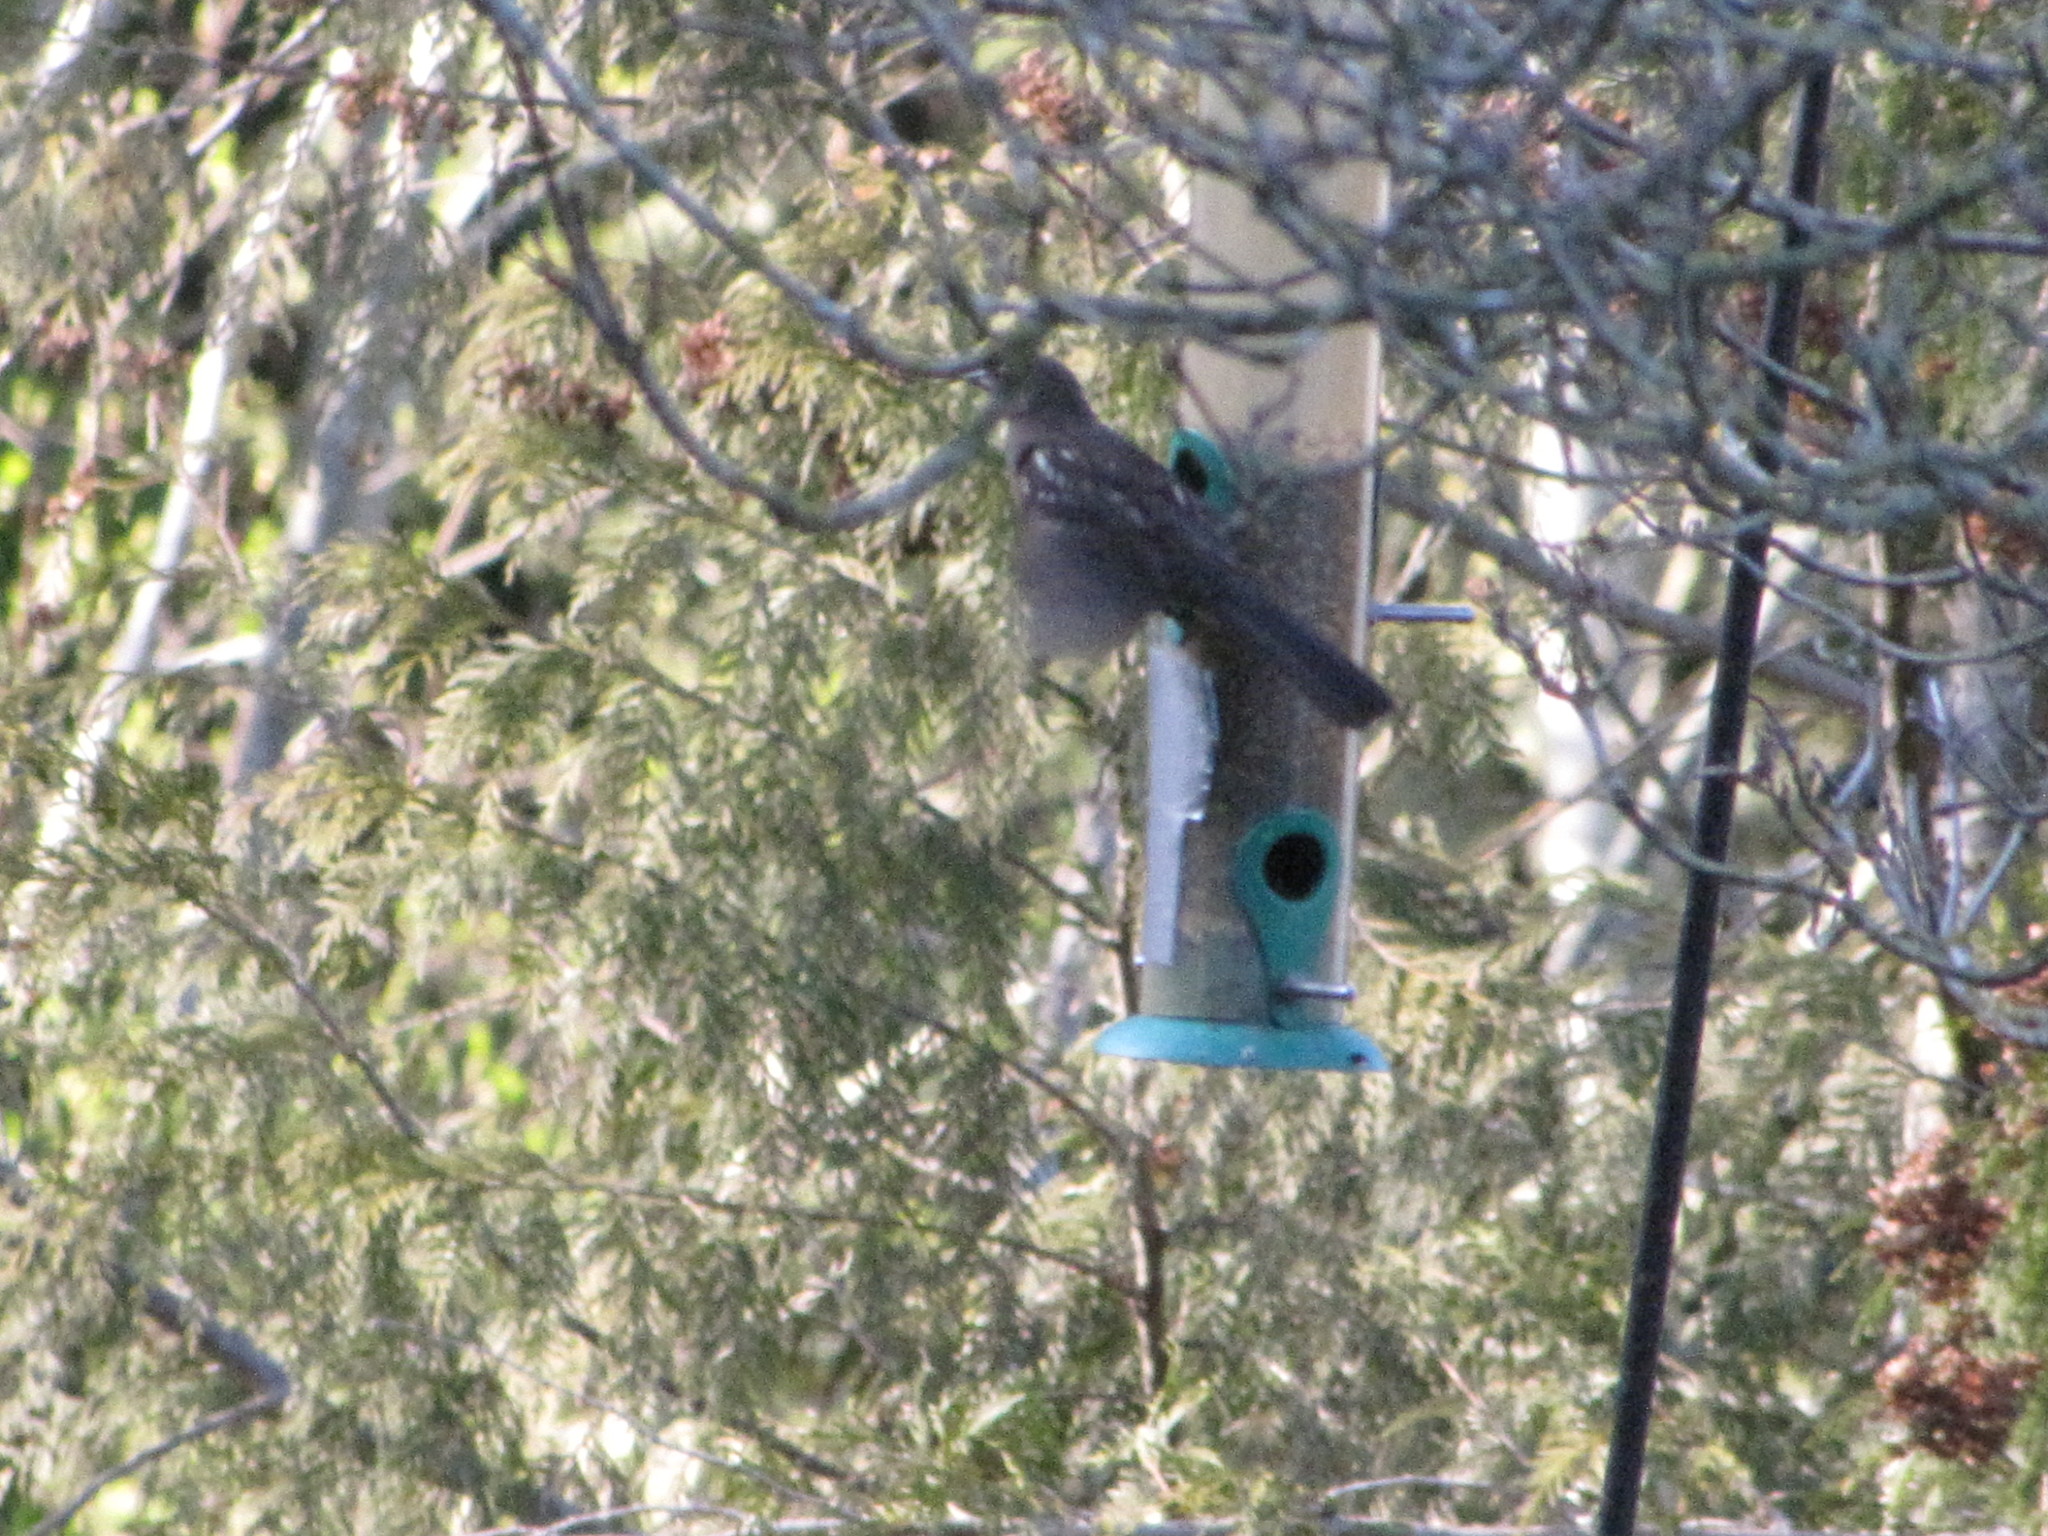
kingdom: Animalia
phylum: Chordata
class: Aves
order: Passeriformes
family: Passerellidae
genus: Pipilo
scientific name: Pipilo maculatus
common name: Spotted towhee
